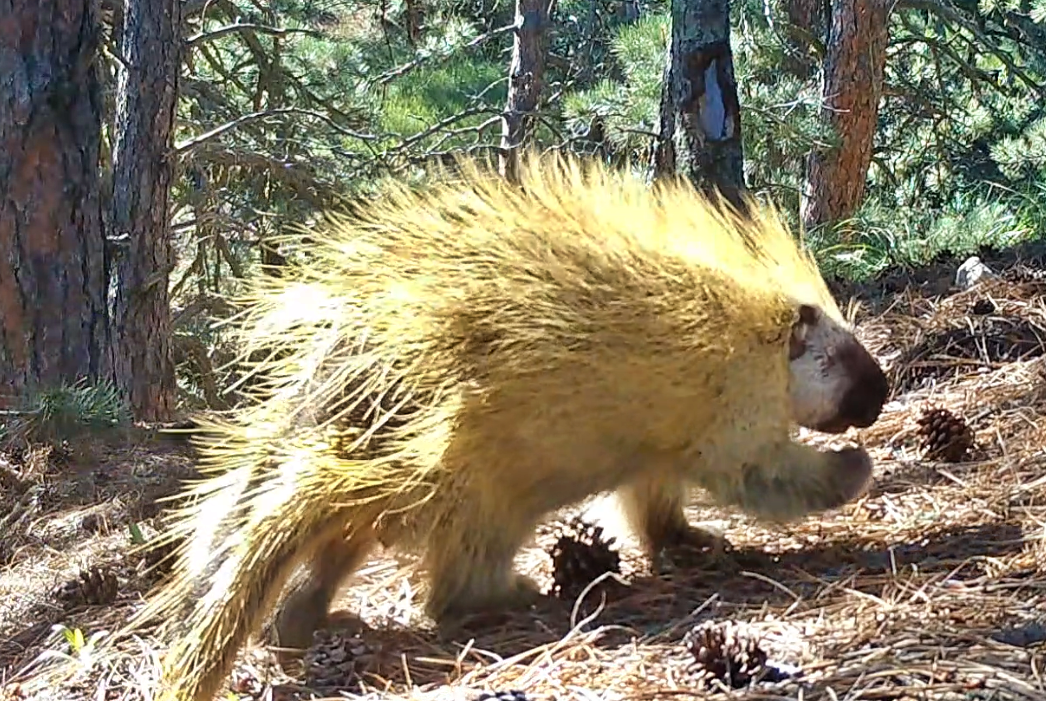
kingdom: Animalia
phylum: Chordata
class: Mammalia
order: Rodentia
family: Erethizontidae
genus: Erethizon
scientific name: Erethizon dorsatus
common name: North american porcupine
